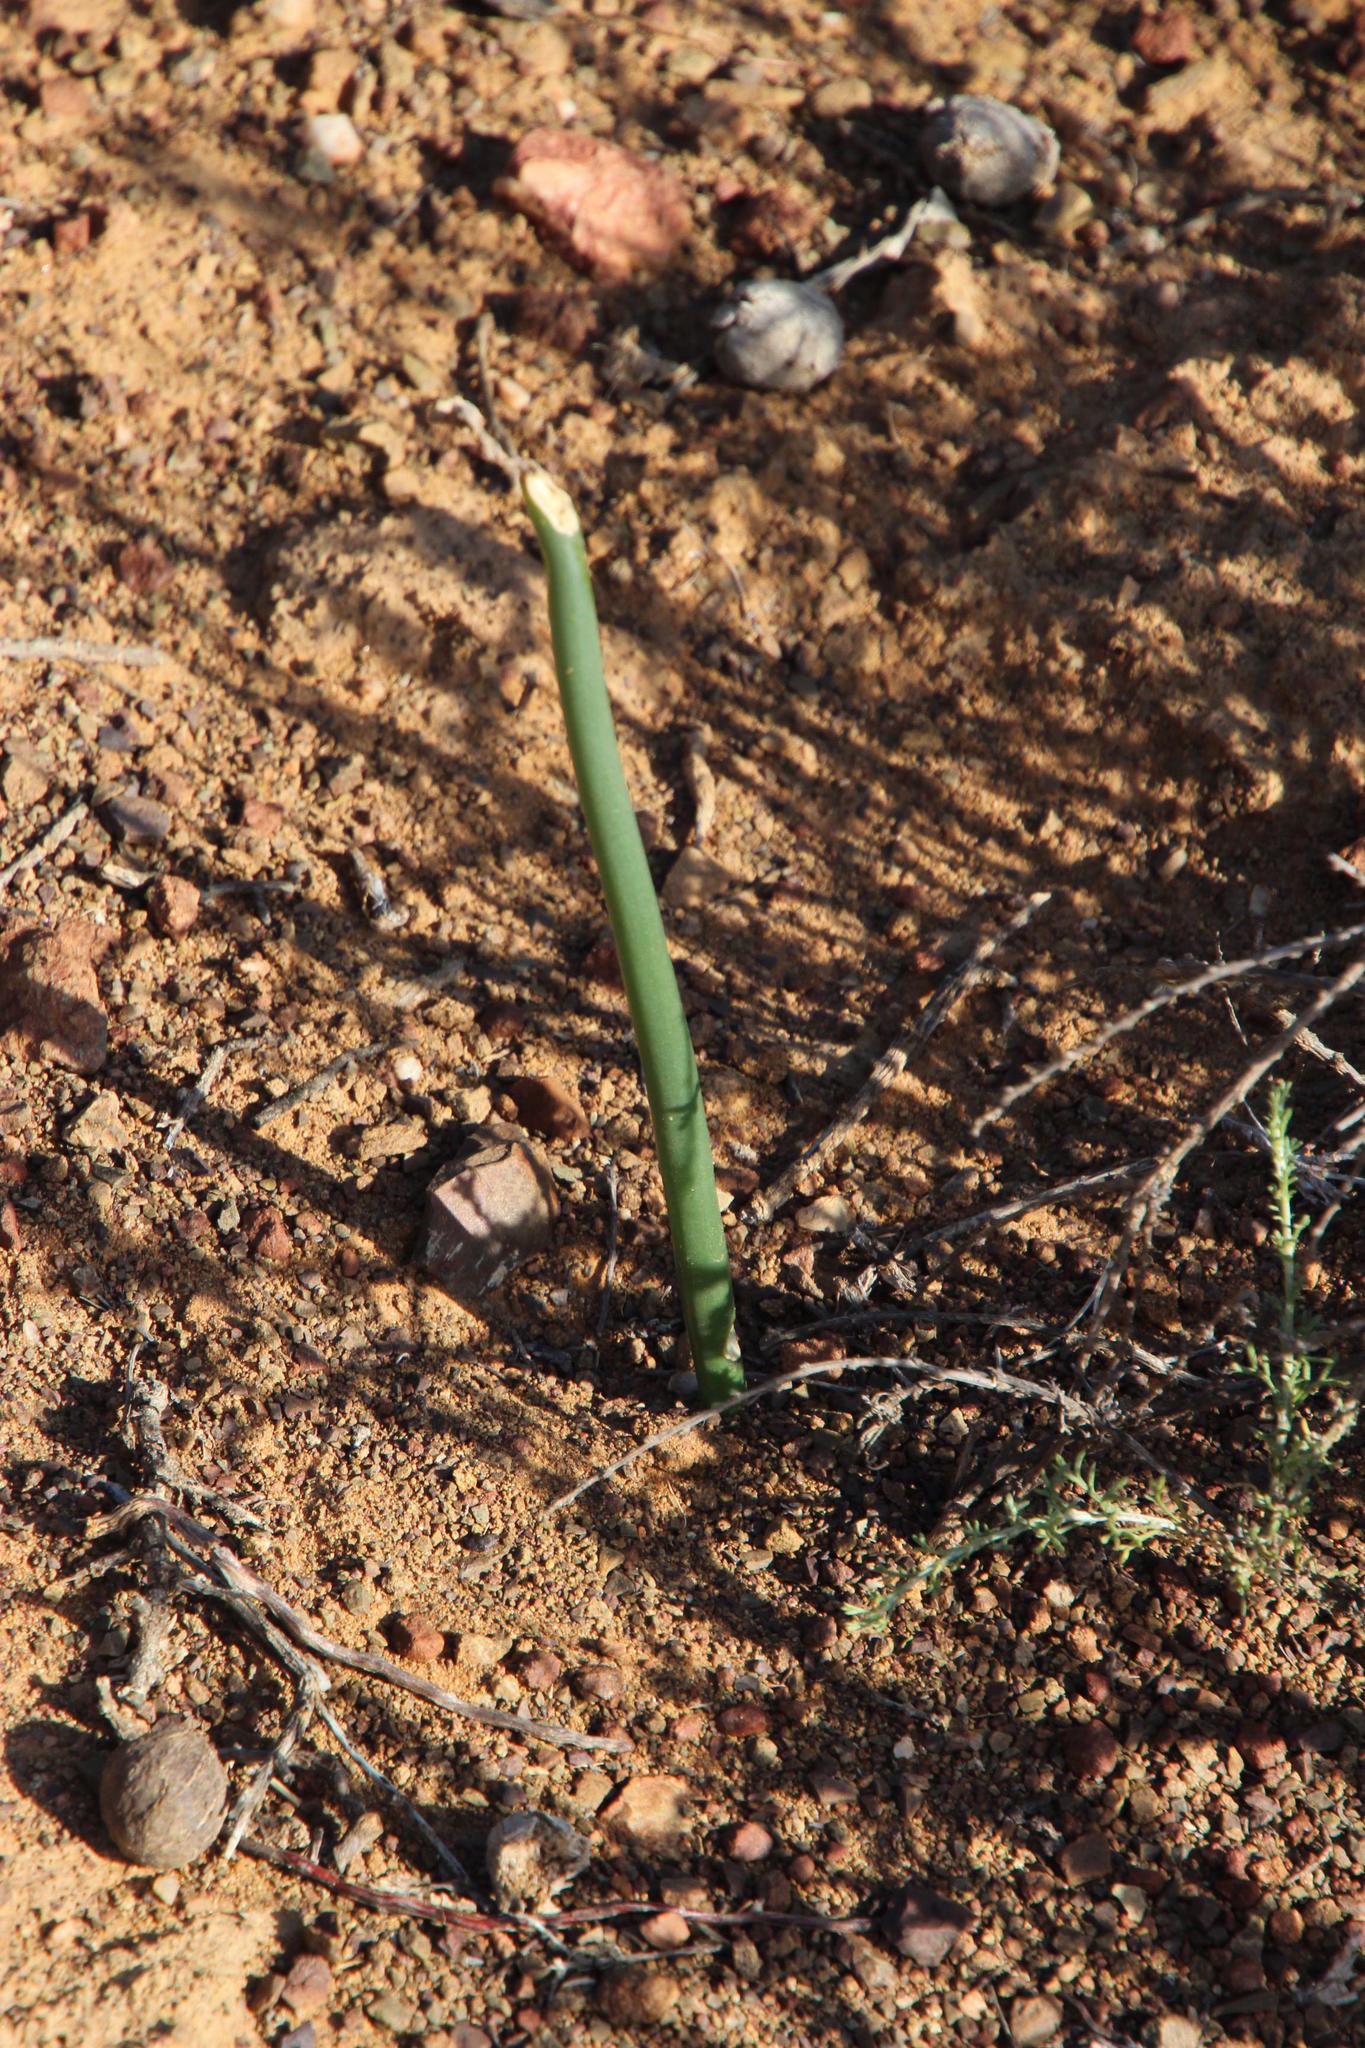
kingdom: Plantae
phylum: Tracheophyta
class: Liliopsida
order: Asparagales
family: Asparagaceae
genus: Drimia
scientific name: Drimia anomala
